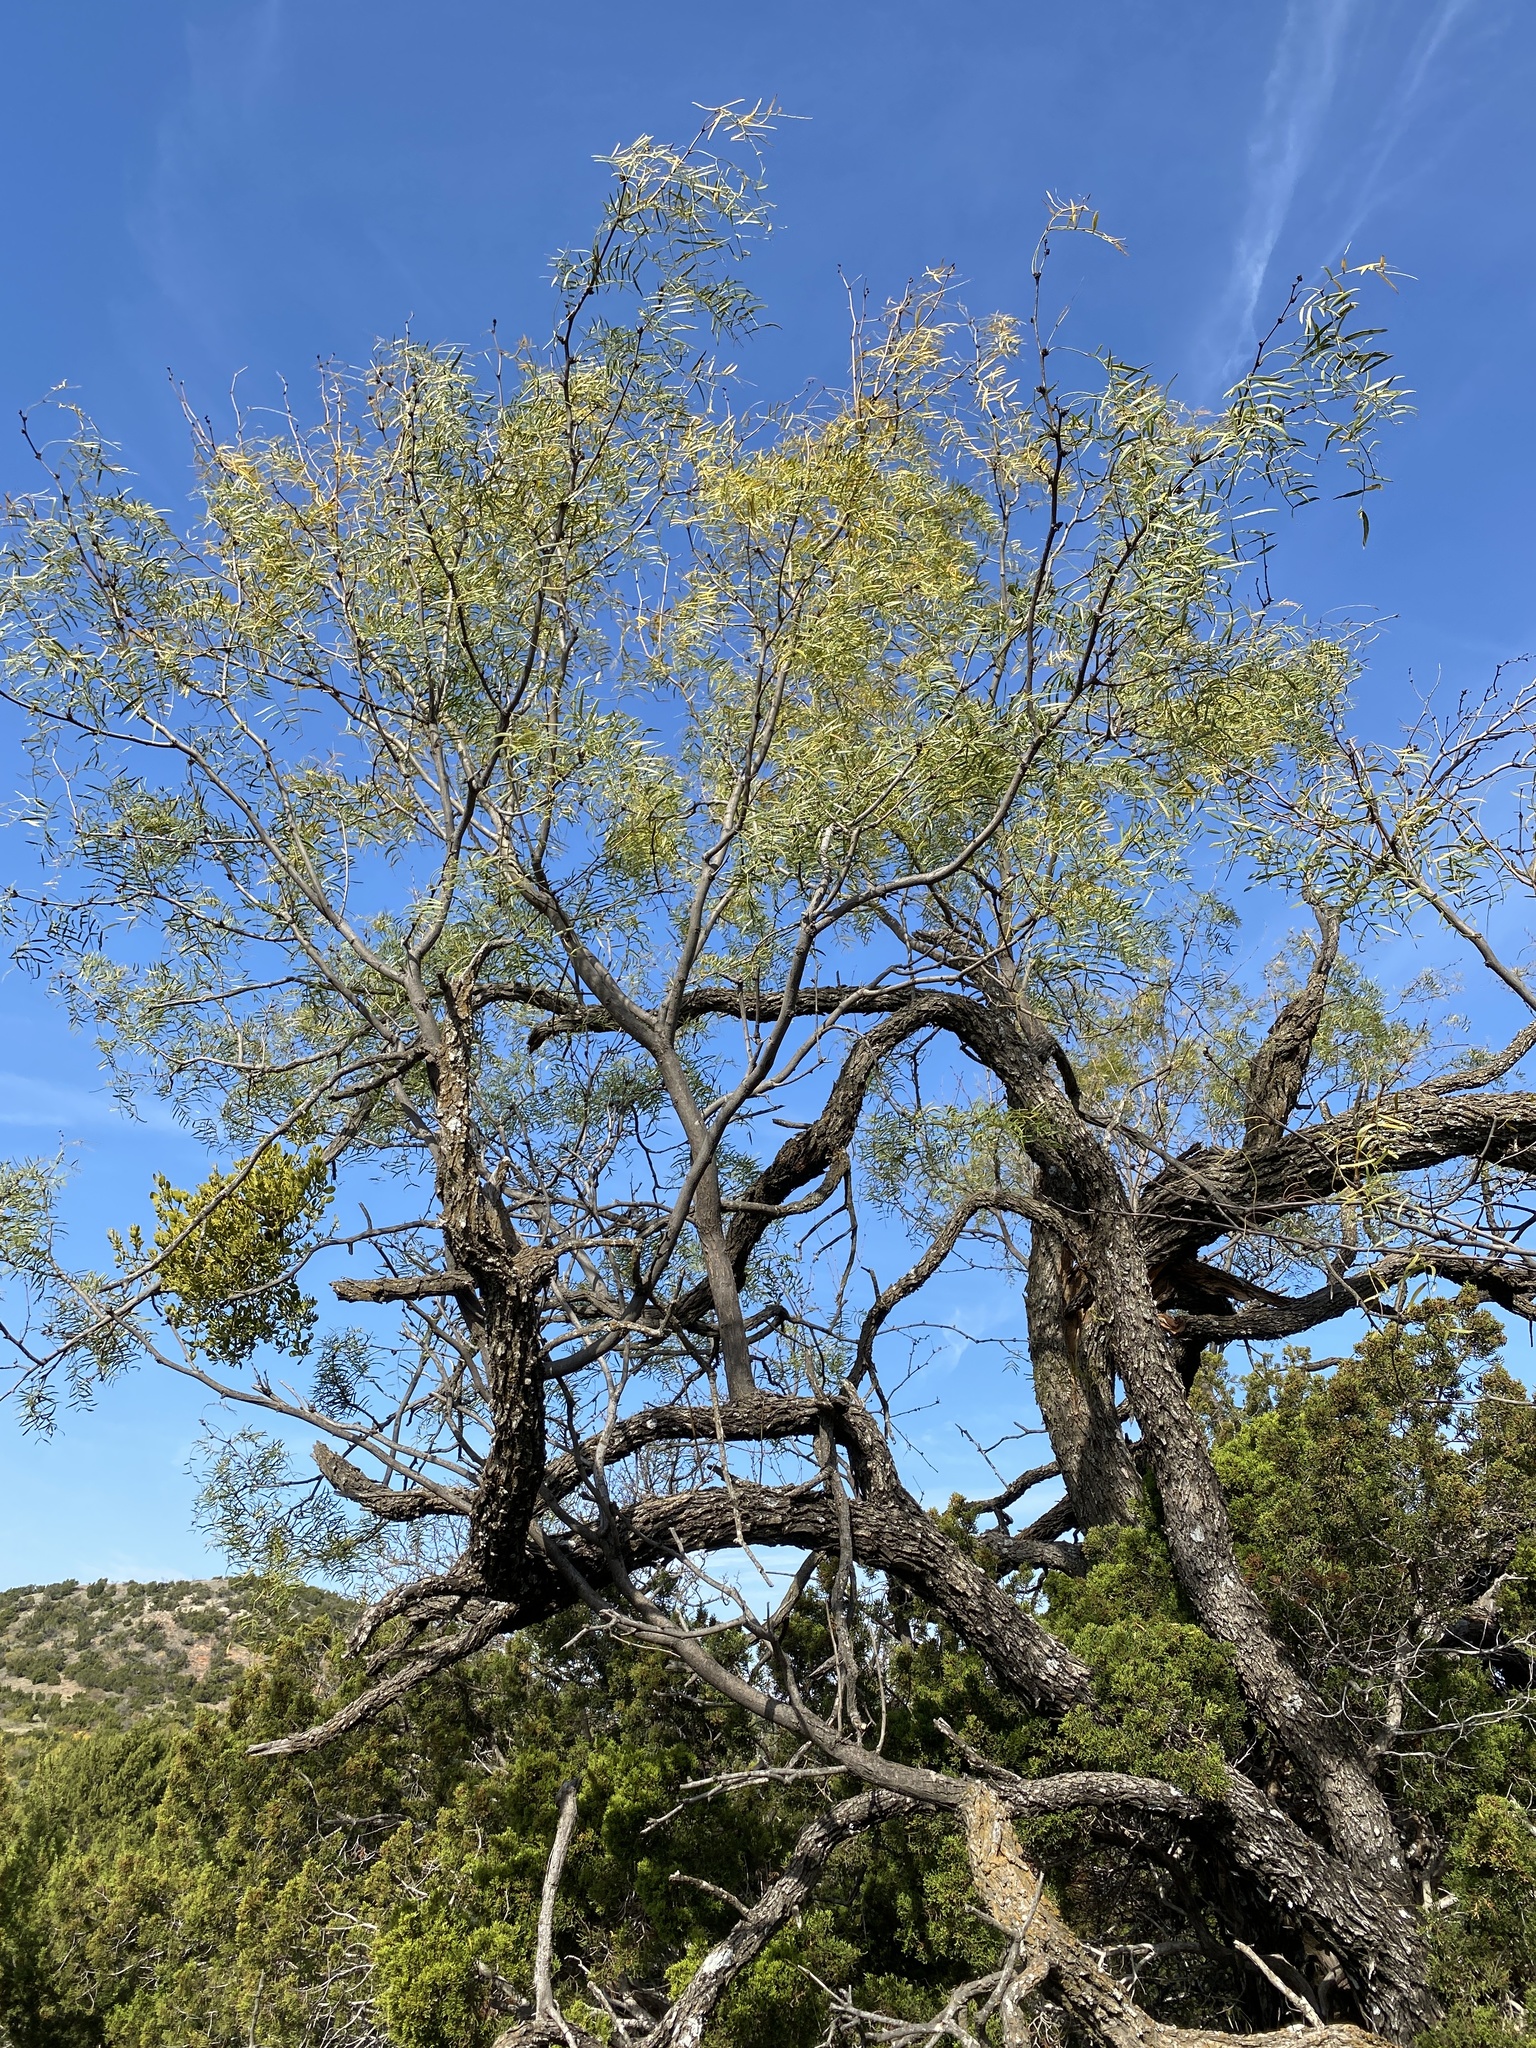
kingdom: Plantae
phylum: Tracheophyta
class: Magnoliopsida
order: Fabales
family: Fabaceae
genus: Prosopis
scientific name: Prosopis glandulosa
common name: Honey mesquite
